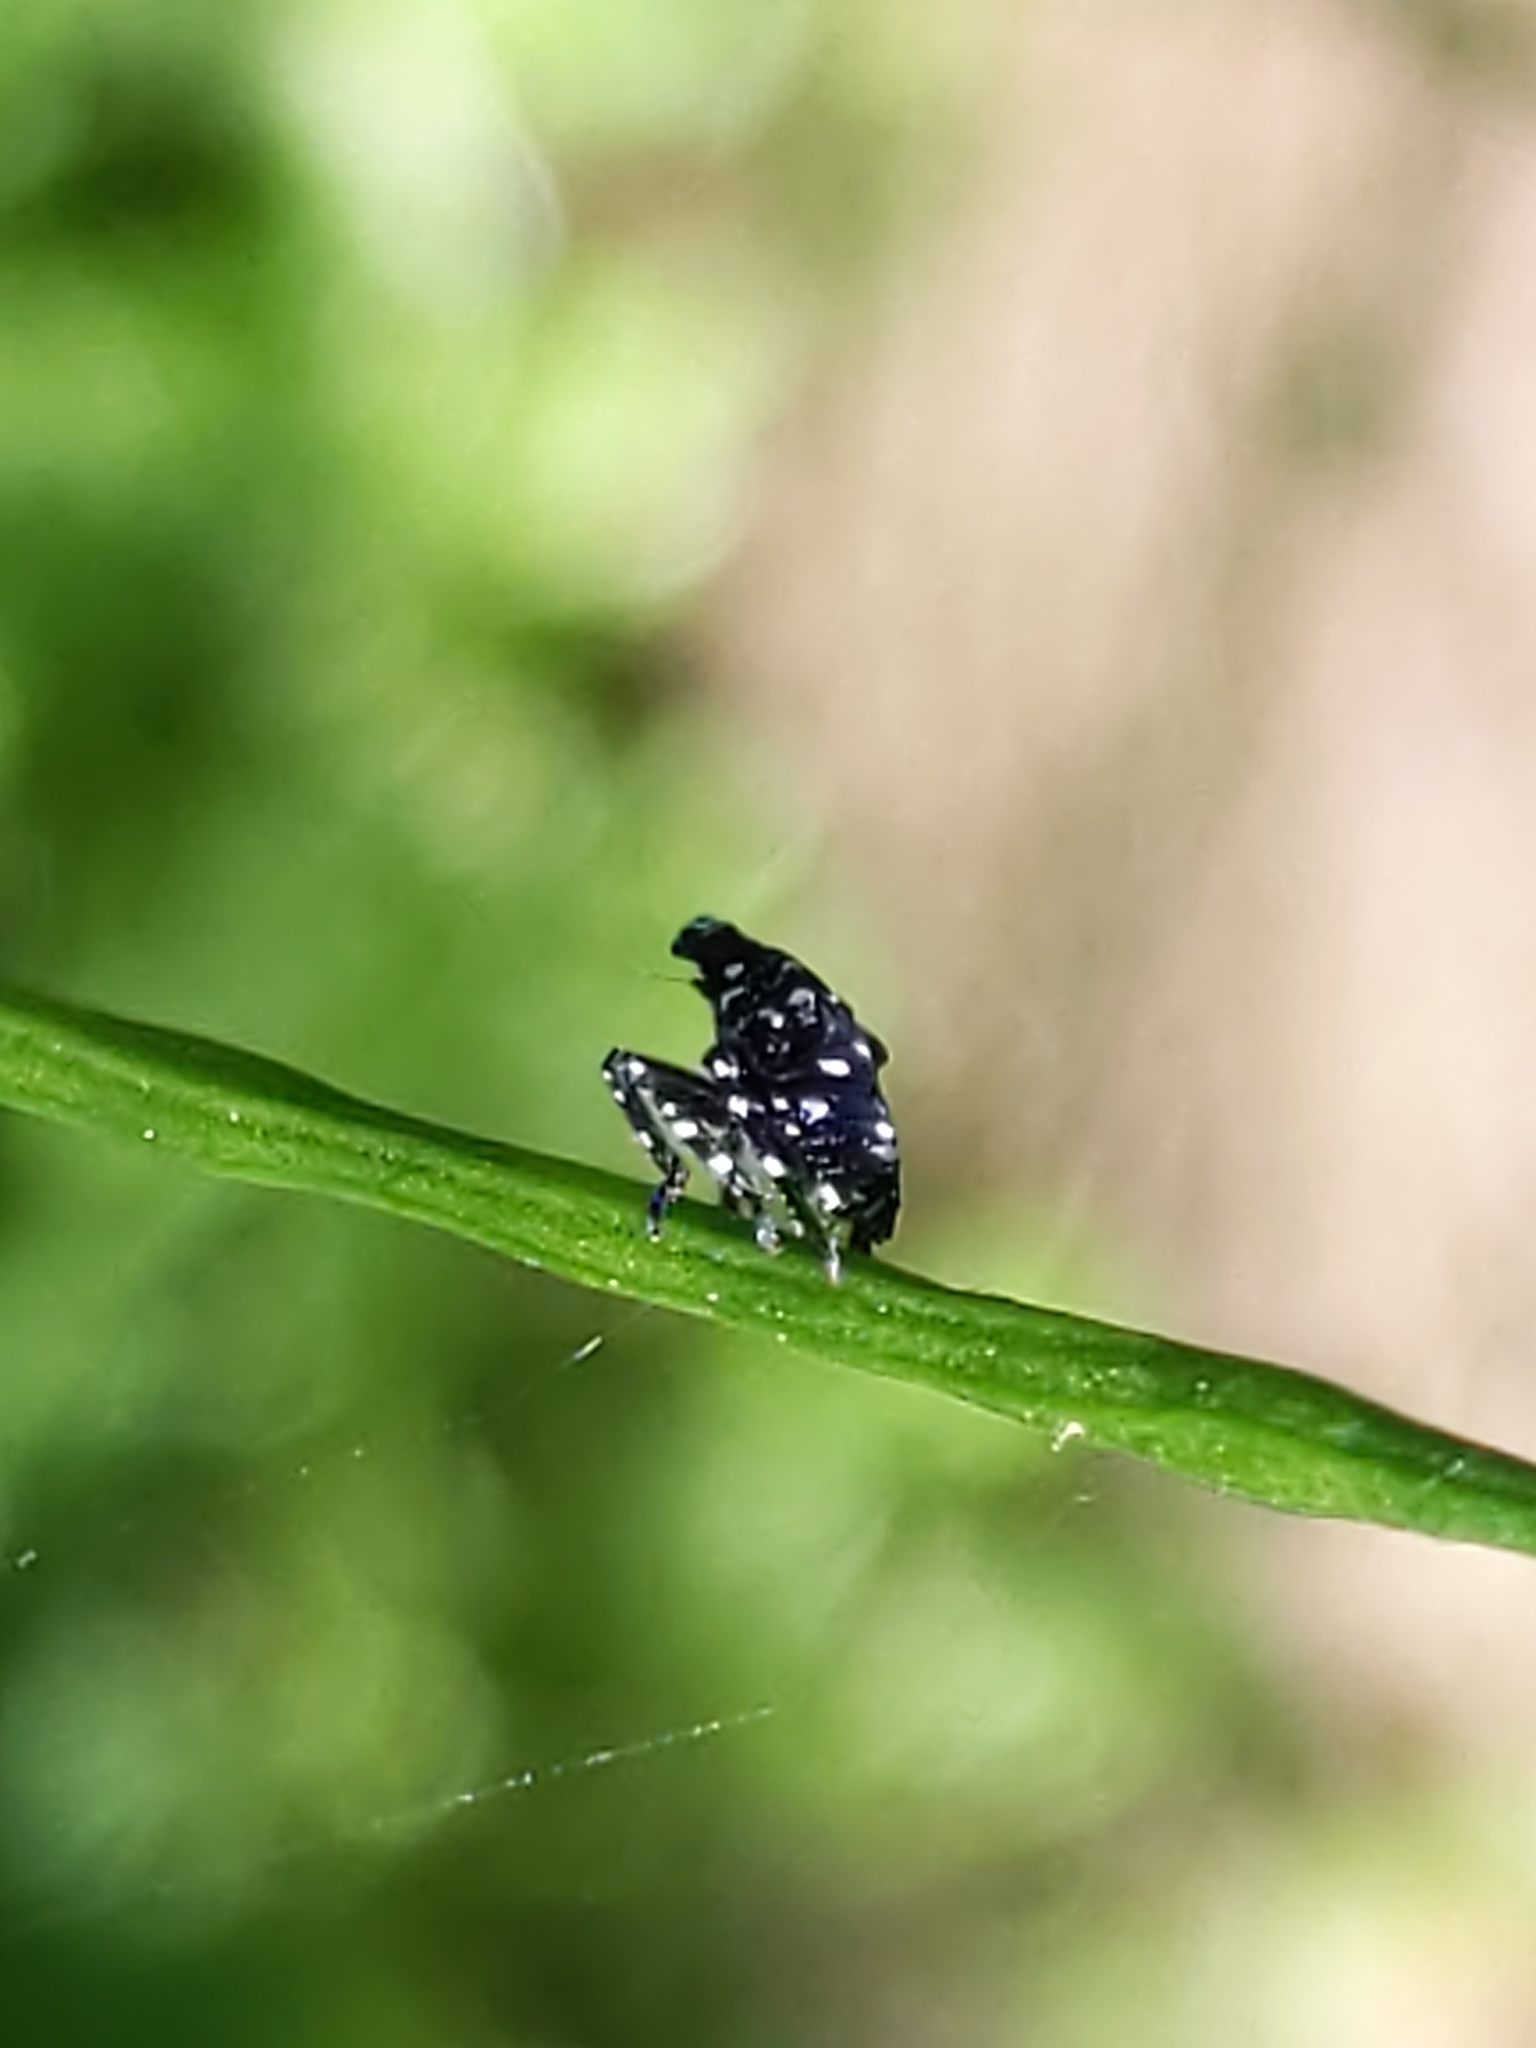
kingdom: Animalia
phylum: Arthropoda
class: Insecta
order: Hemiptera
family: Fulgoridae
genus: Lycorma
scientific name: Lycorma delicatula
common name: Spotted lanternfly
